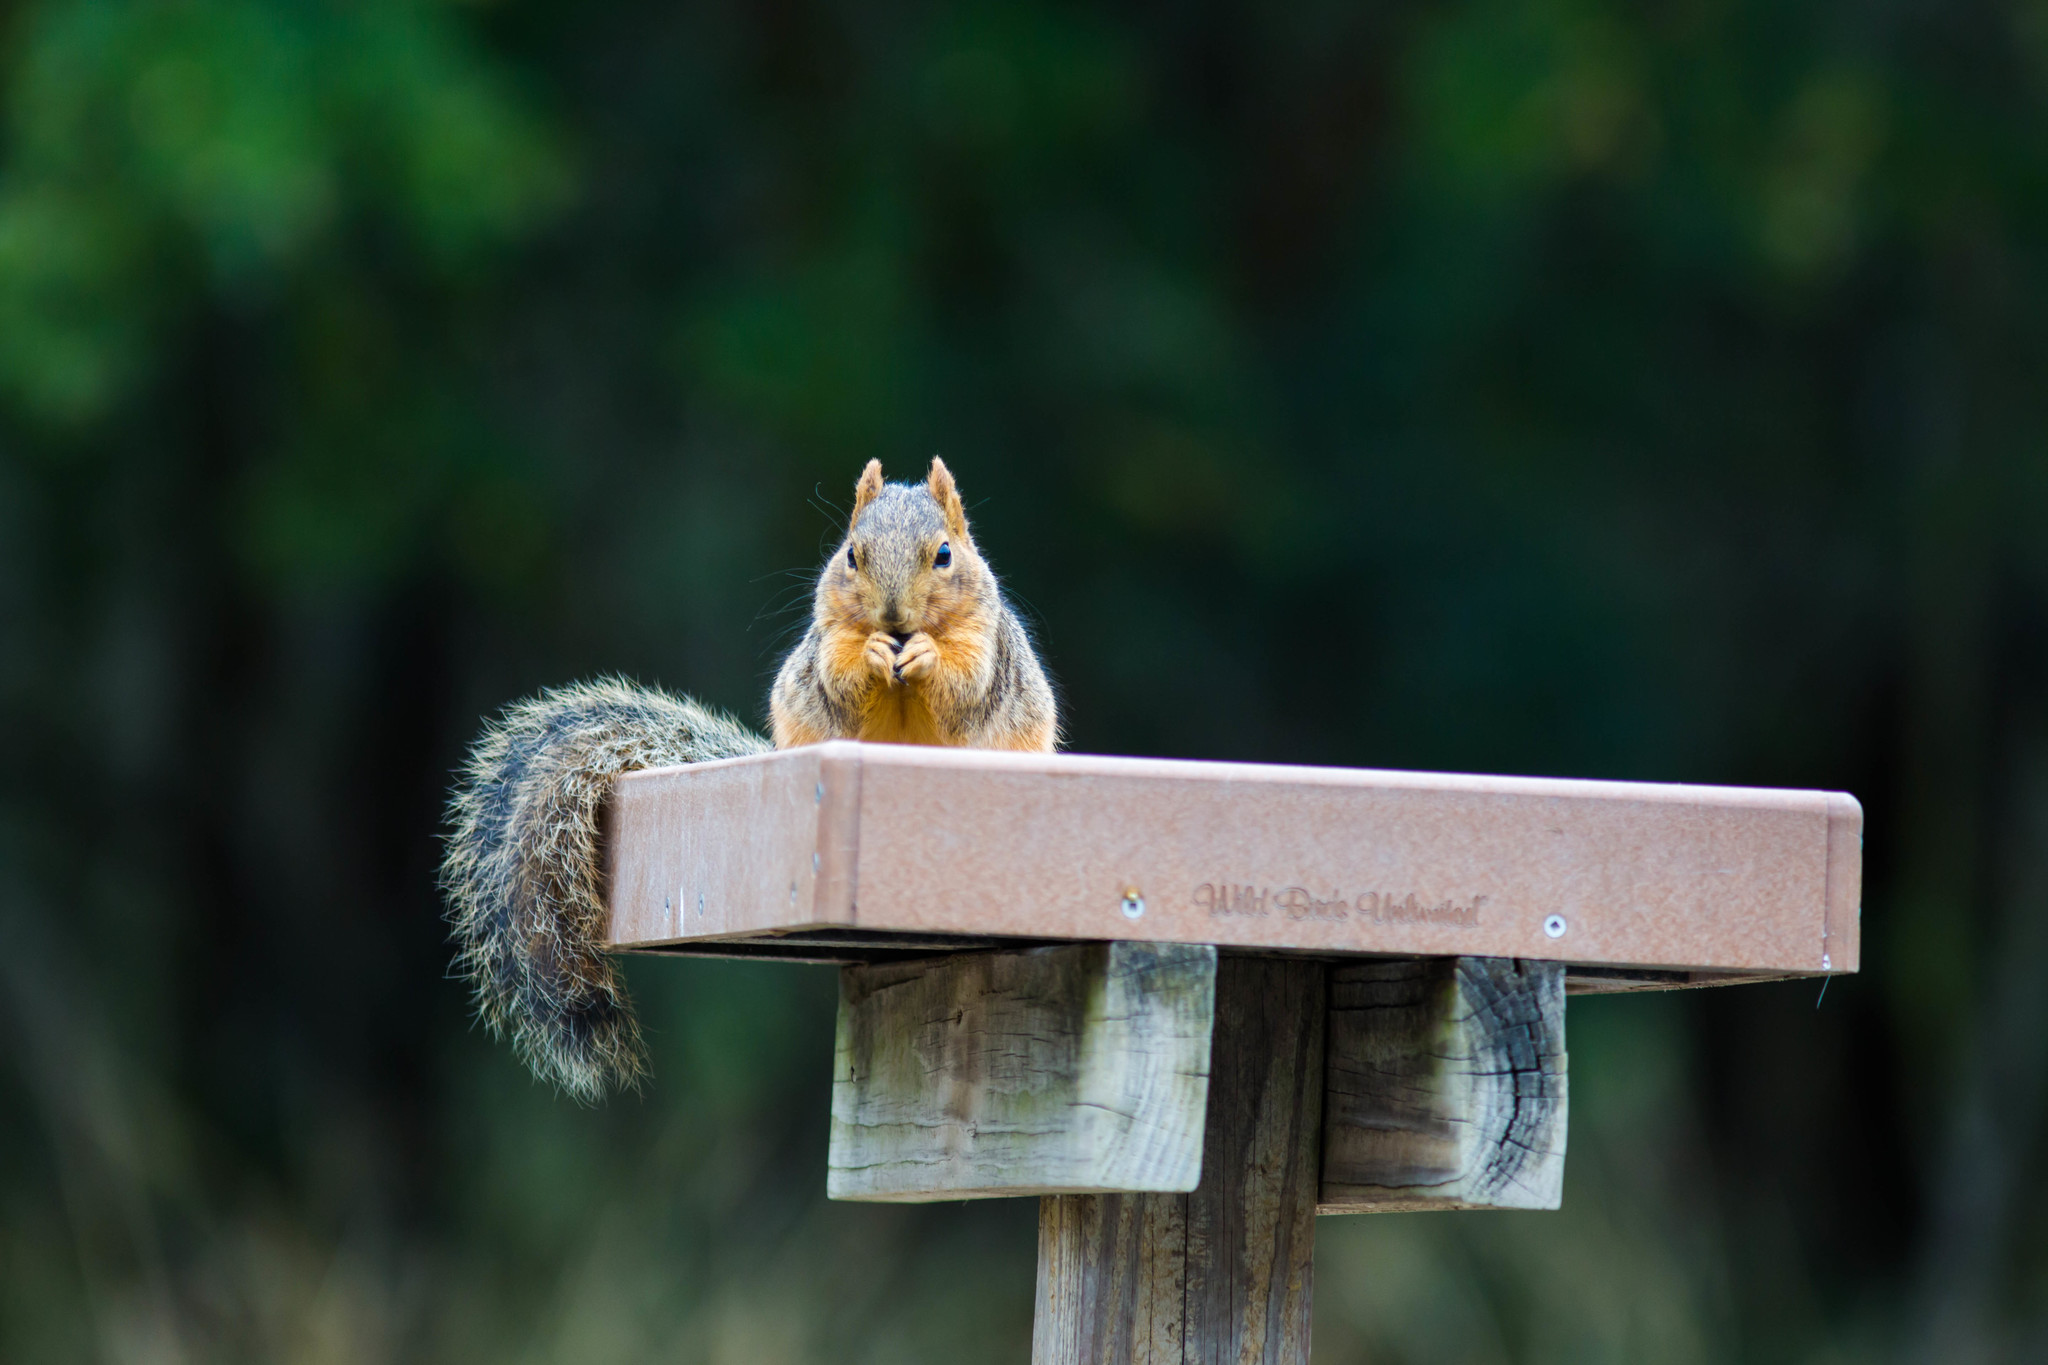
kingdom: Animalia
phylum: Chordata
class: Mammalia
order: Rodentia
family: Sciuridae
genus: Sciurus
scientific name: Sciurus niger
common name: Fox squirrel
